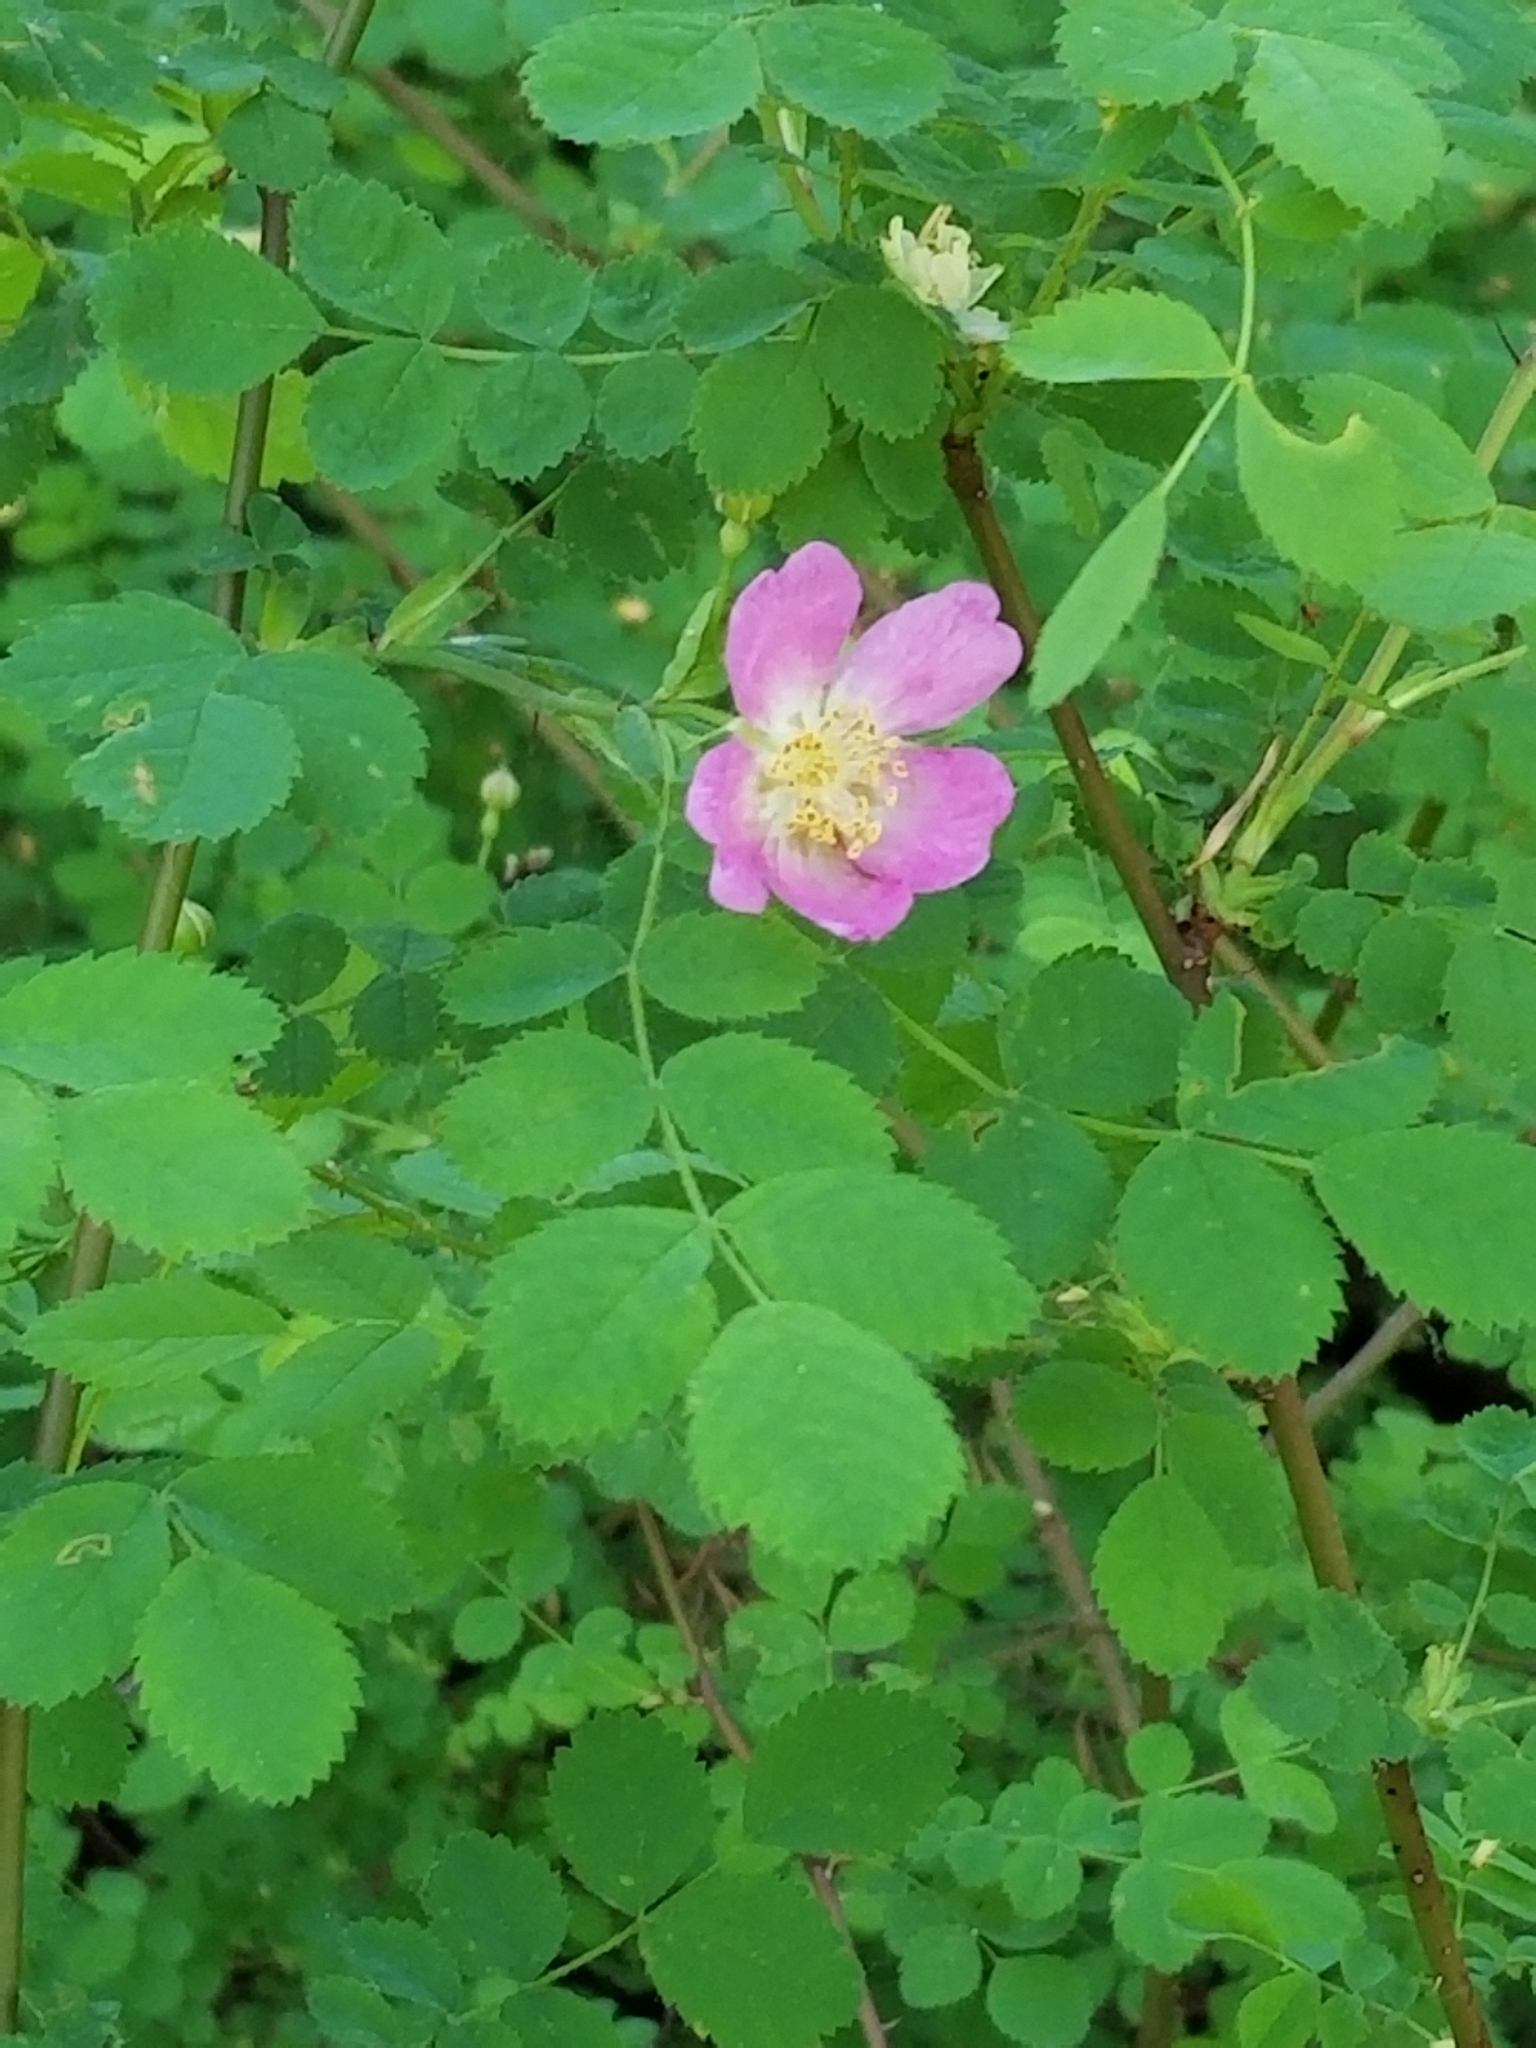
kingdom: Plantae
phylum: Tracheophyta
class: Magnoliopsida
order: Rosales
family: Rosaceae
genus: Rosa
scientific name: Rosa nutkana
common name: Nootka rose
